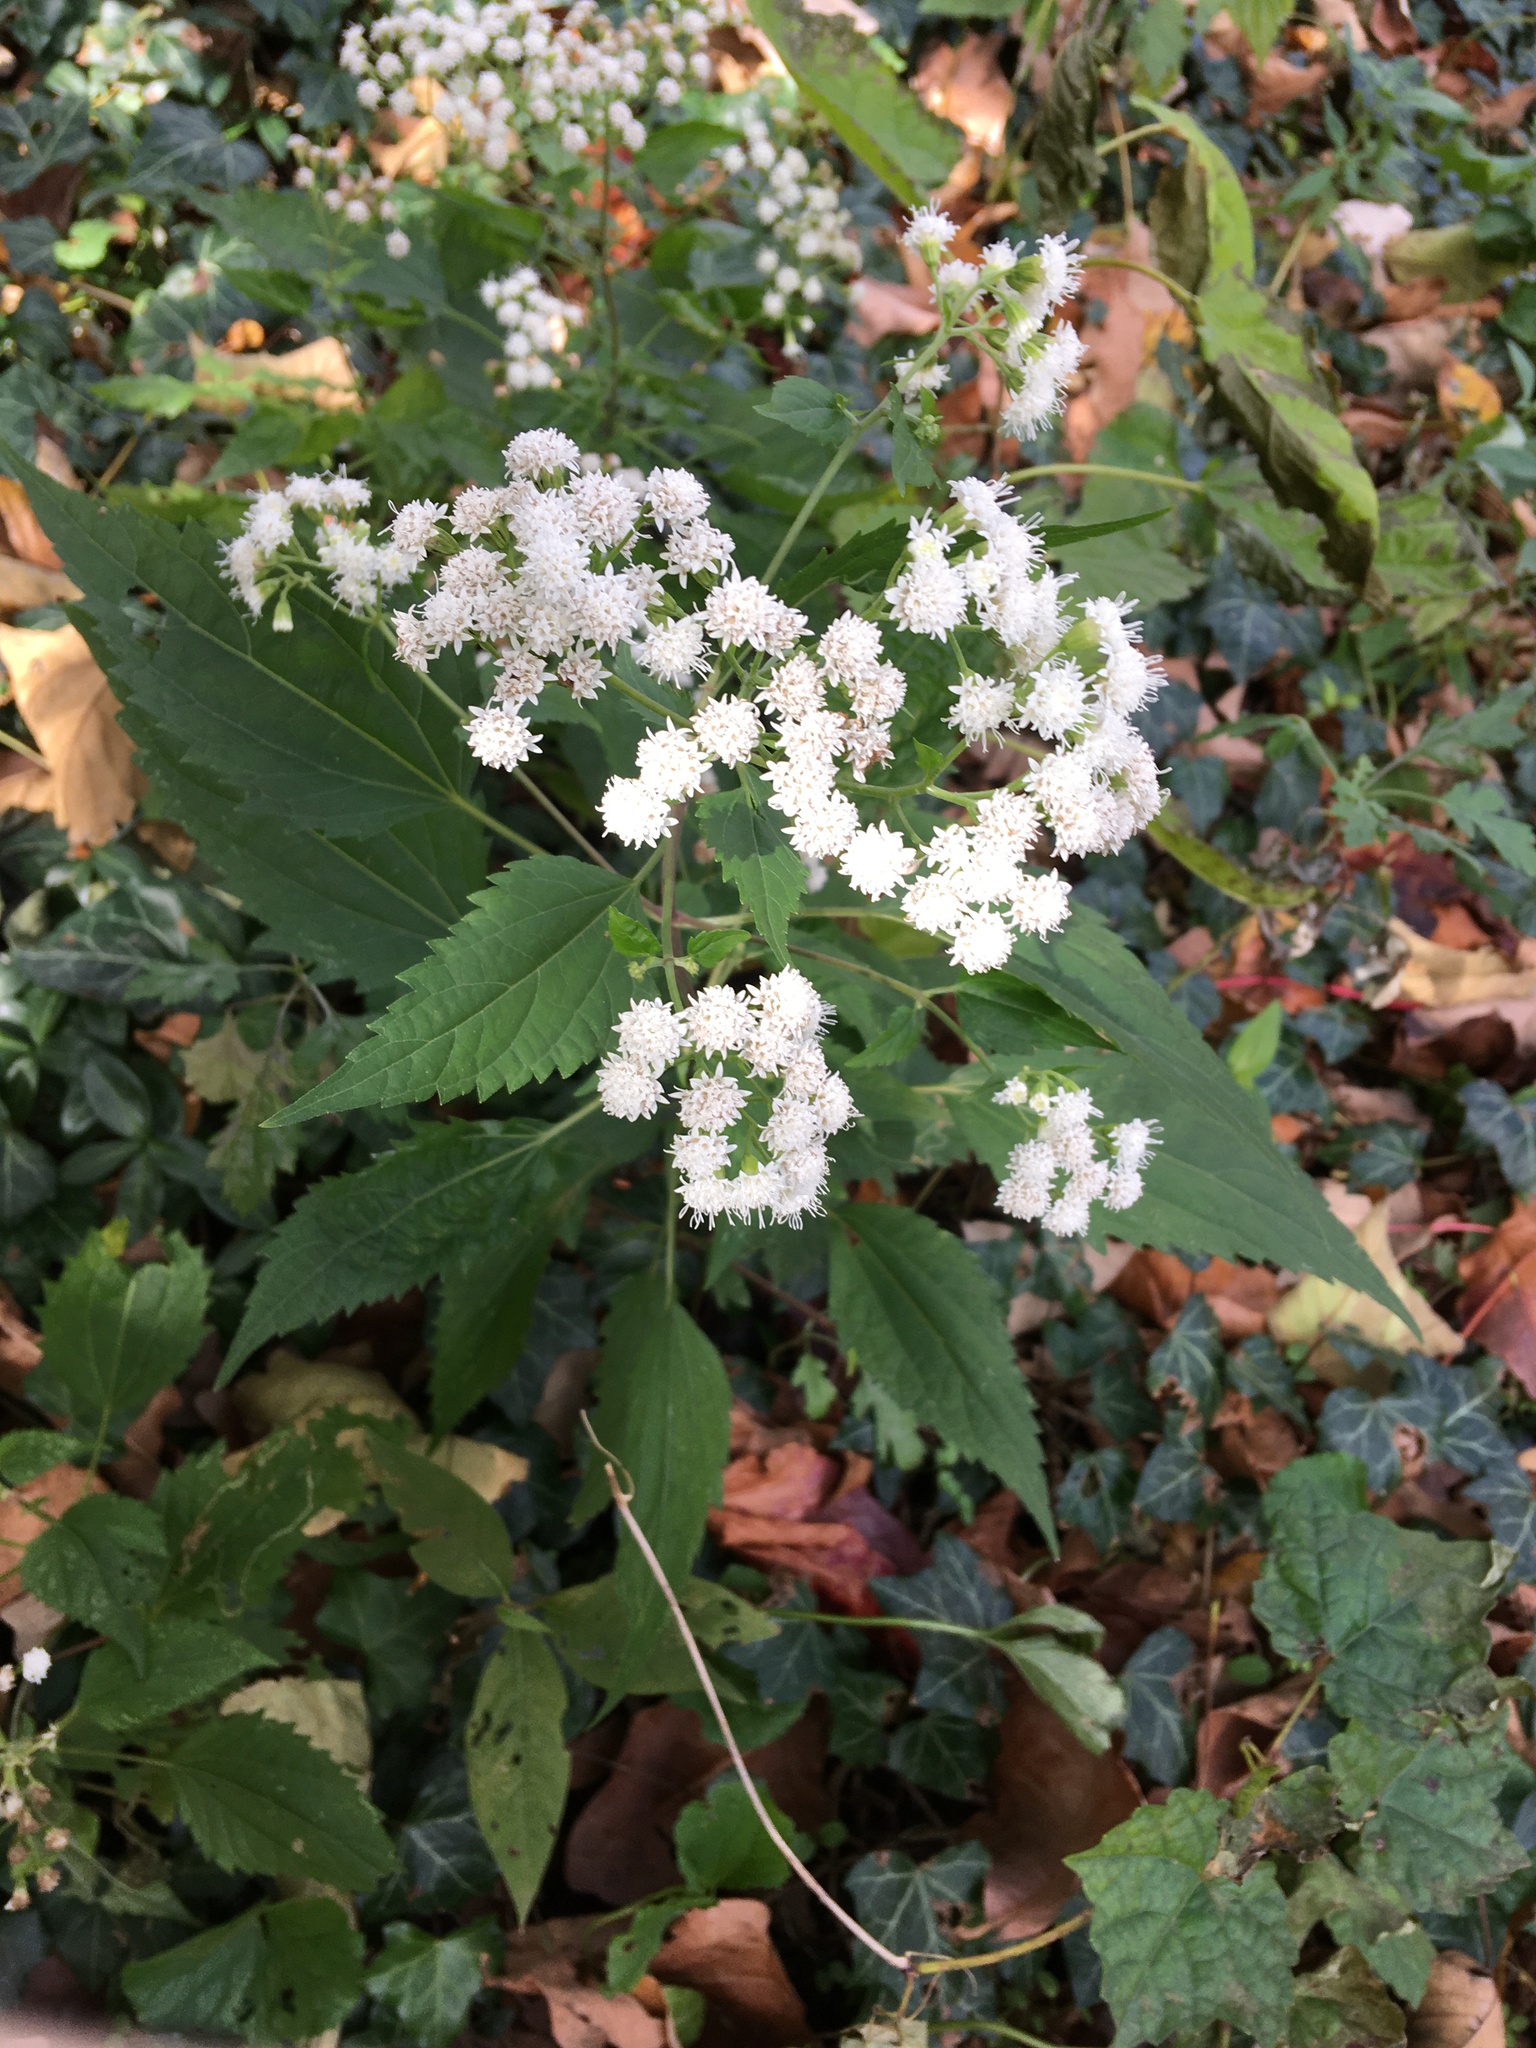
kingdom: Plantae
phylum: Tracheophyta
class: Magnoliopsida
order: Asterales
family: Asteraceae
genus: Ageratina
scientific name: Ageratina altissima
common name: White snakeroot
